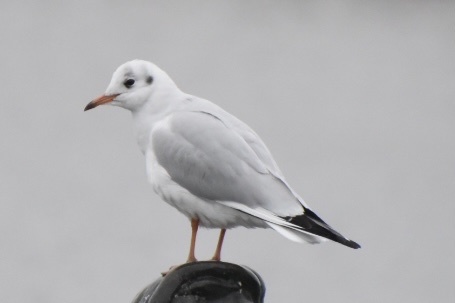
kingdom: Animalia
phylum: Chordata
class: Aves
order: Charadriiformes
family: Laridae
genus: Chroicocephalus
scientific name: Chroicocephalus ridibundus
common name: Black-headed gull
